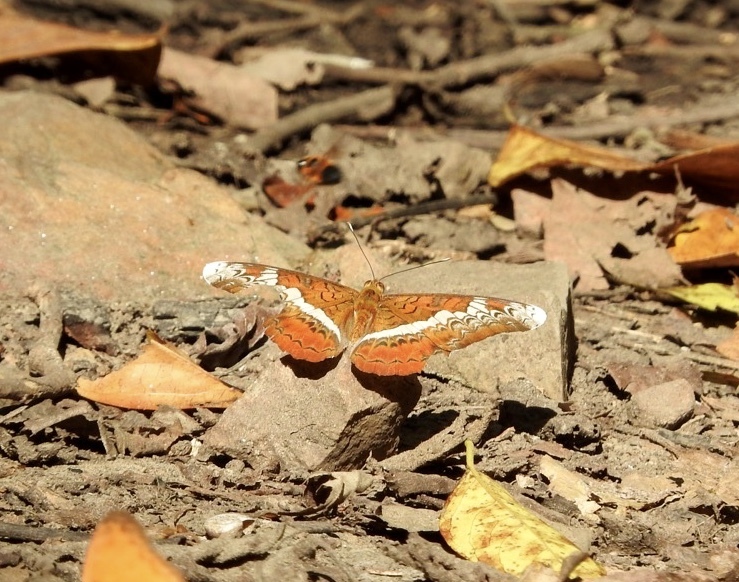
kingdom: Animalia
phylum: Arthropoda
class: Insecta
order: Lepidoptera
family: Nymphalidae
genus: Lebadea
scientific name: Lebadea martha
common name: Knight
